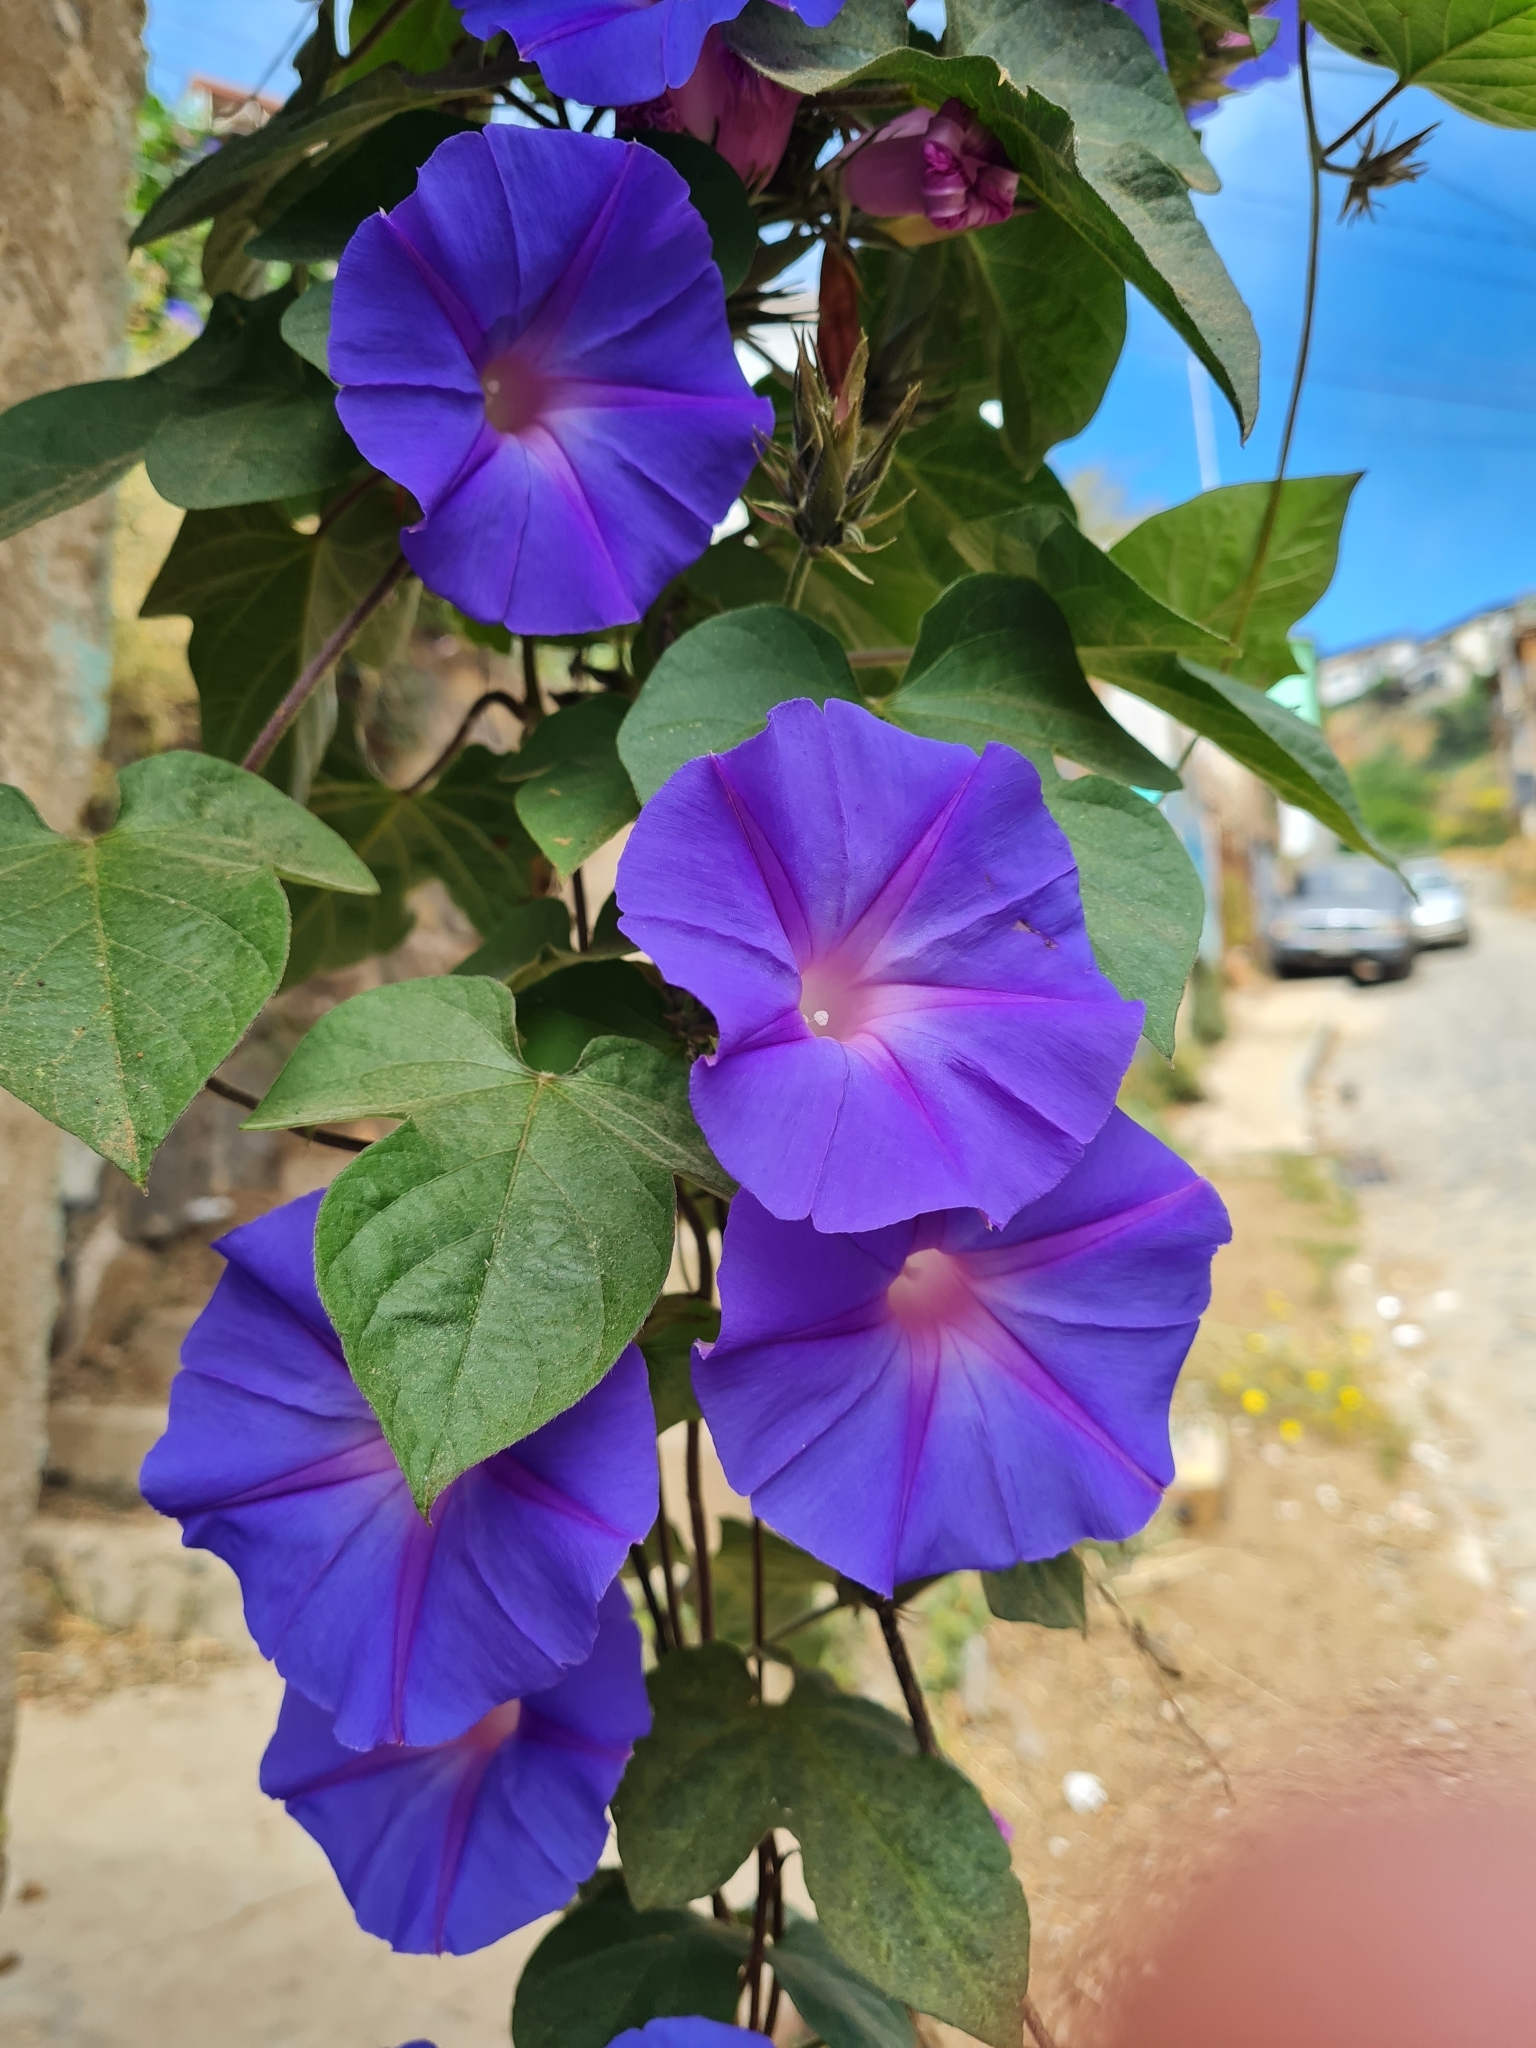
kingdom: Plantae
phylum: Tracheophyta
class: Magnoliopsida
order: Solanales
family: Convolvulaceae
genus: Ipomoea
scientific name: Ipomoea indica
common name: Blue dawnflower
